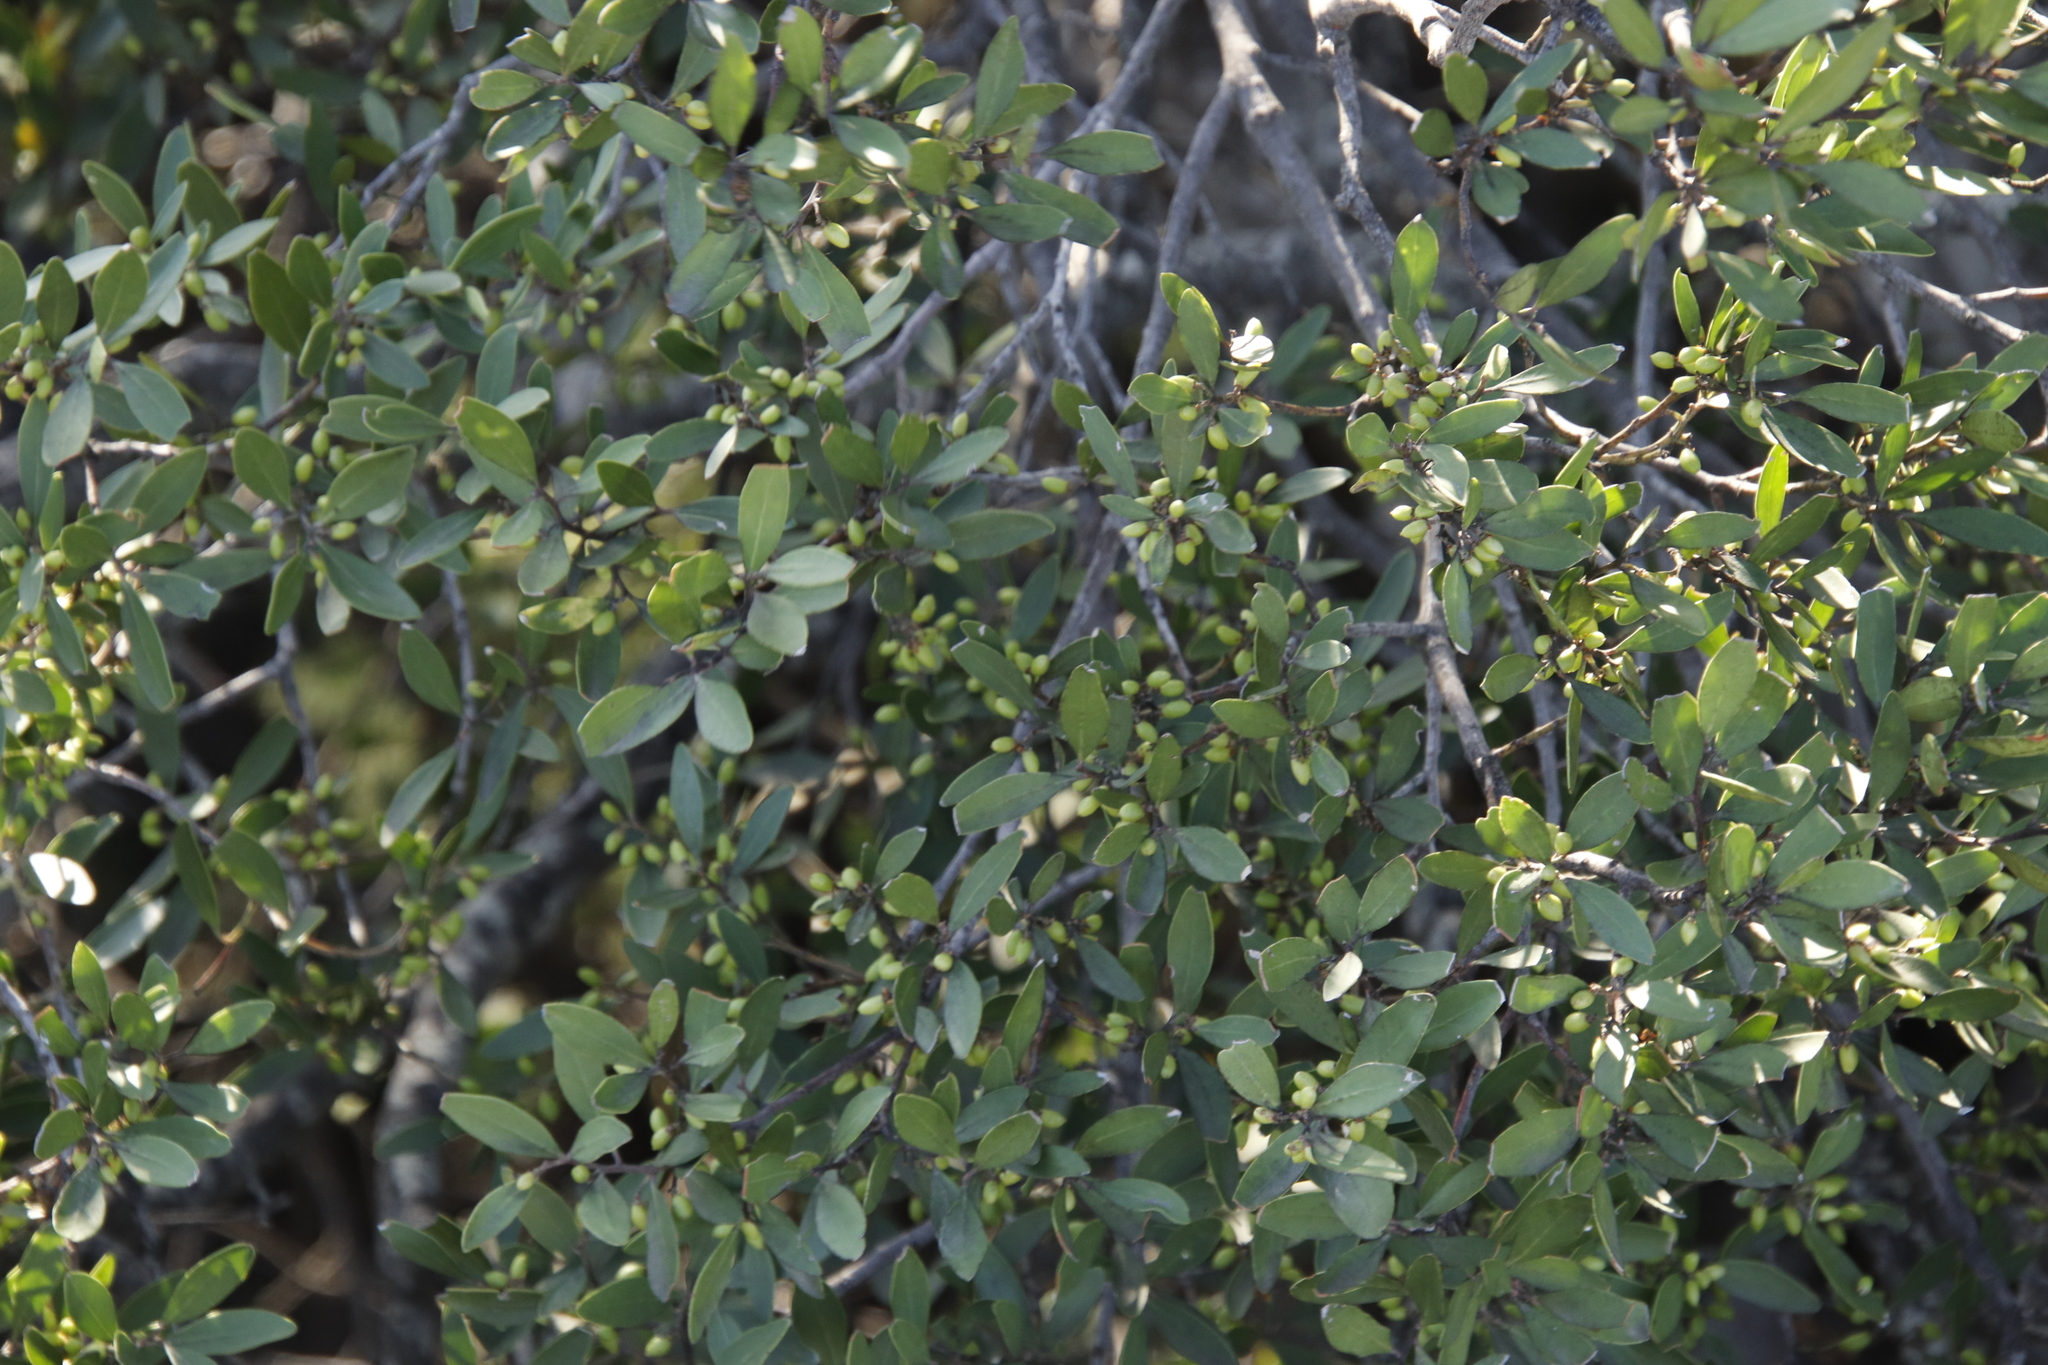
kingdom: Plantae
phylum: Tracheophyta
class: Magnoliopsida
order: Celastrales
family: Celastraceae
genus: Gymnosporia
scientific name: Gymnosporia laurina
